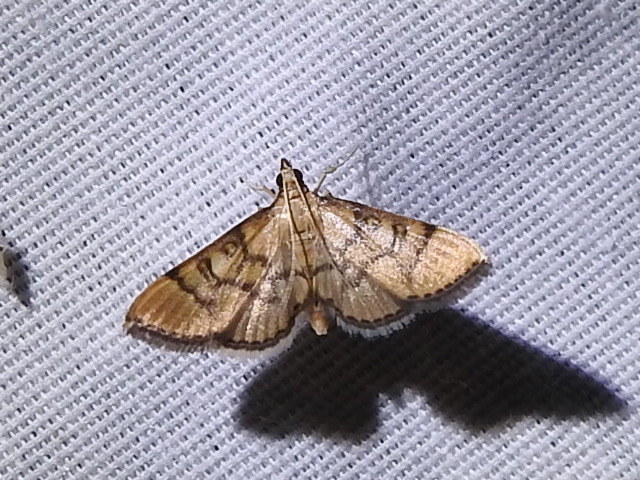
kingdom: Animalia
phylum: Arthropoda
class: Insecta
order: Lepidoptera
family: Crambidae
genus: Lamprosema
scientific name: Lamprosema Blepharomastix ranalis
